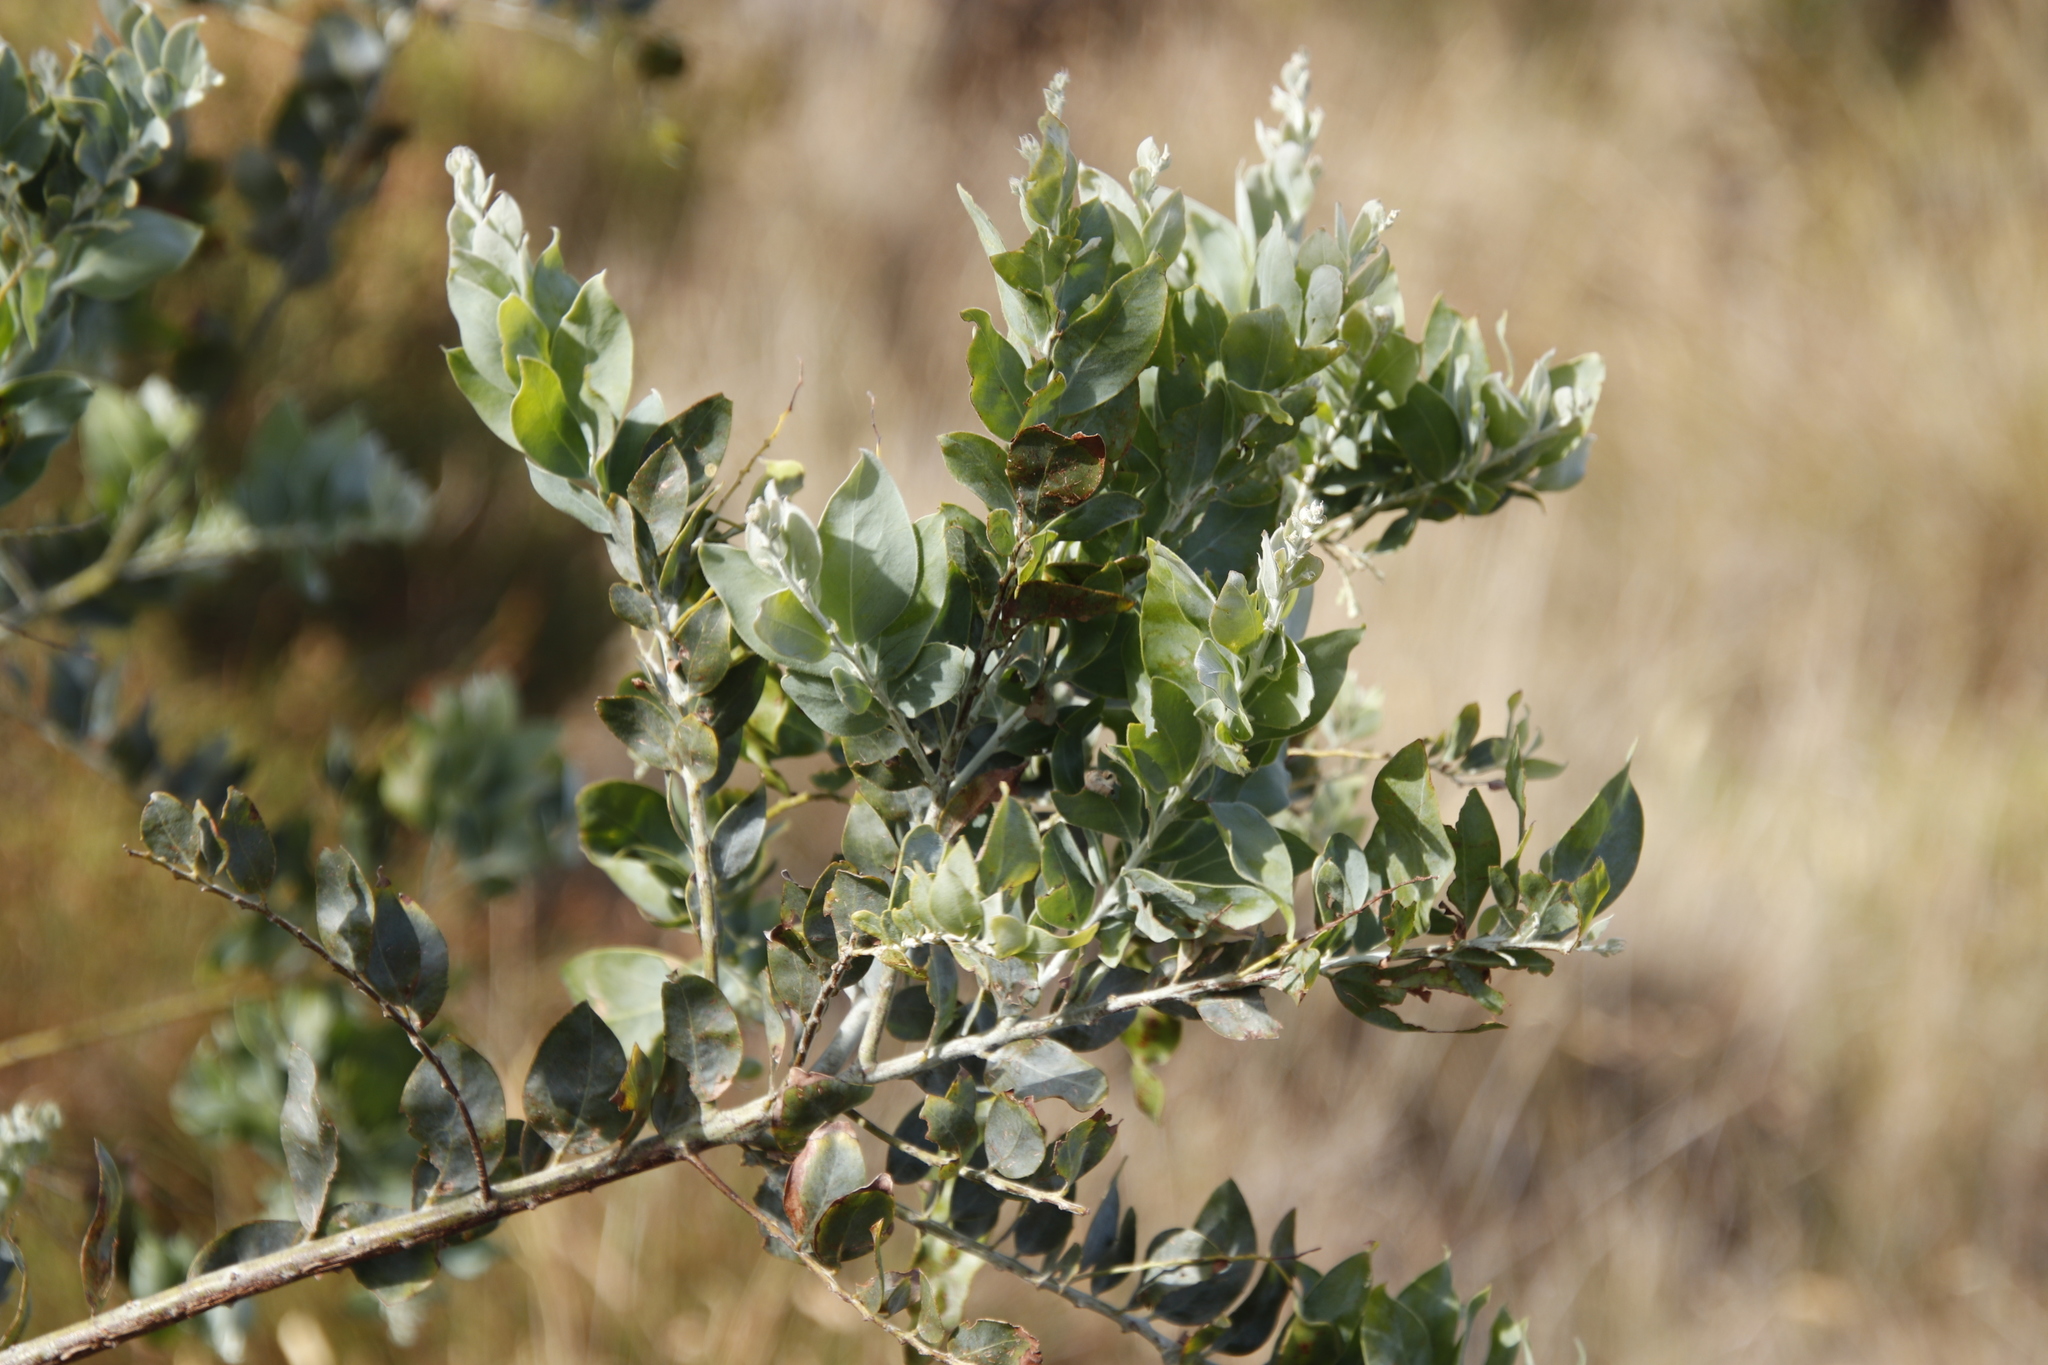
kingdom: Plantae
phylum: Tracheophyta
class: Magnoliopsida
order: Fabales
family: Fabaceae
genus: Acacia
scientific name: Acacia podalyriifolia
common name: Pearl wattle
